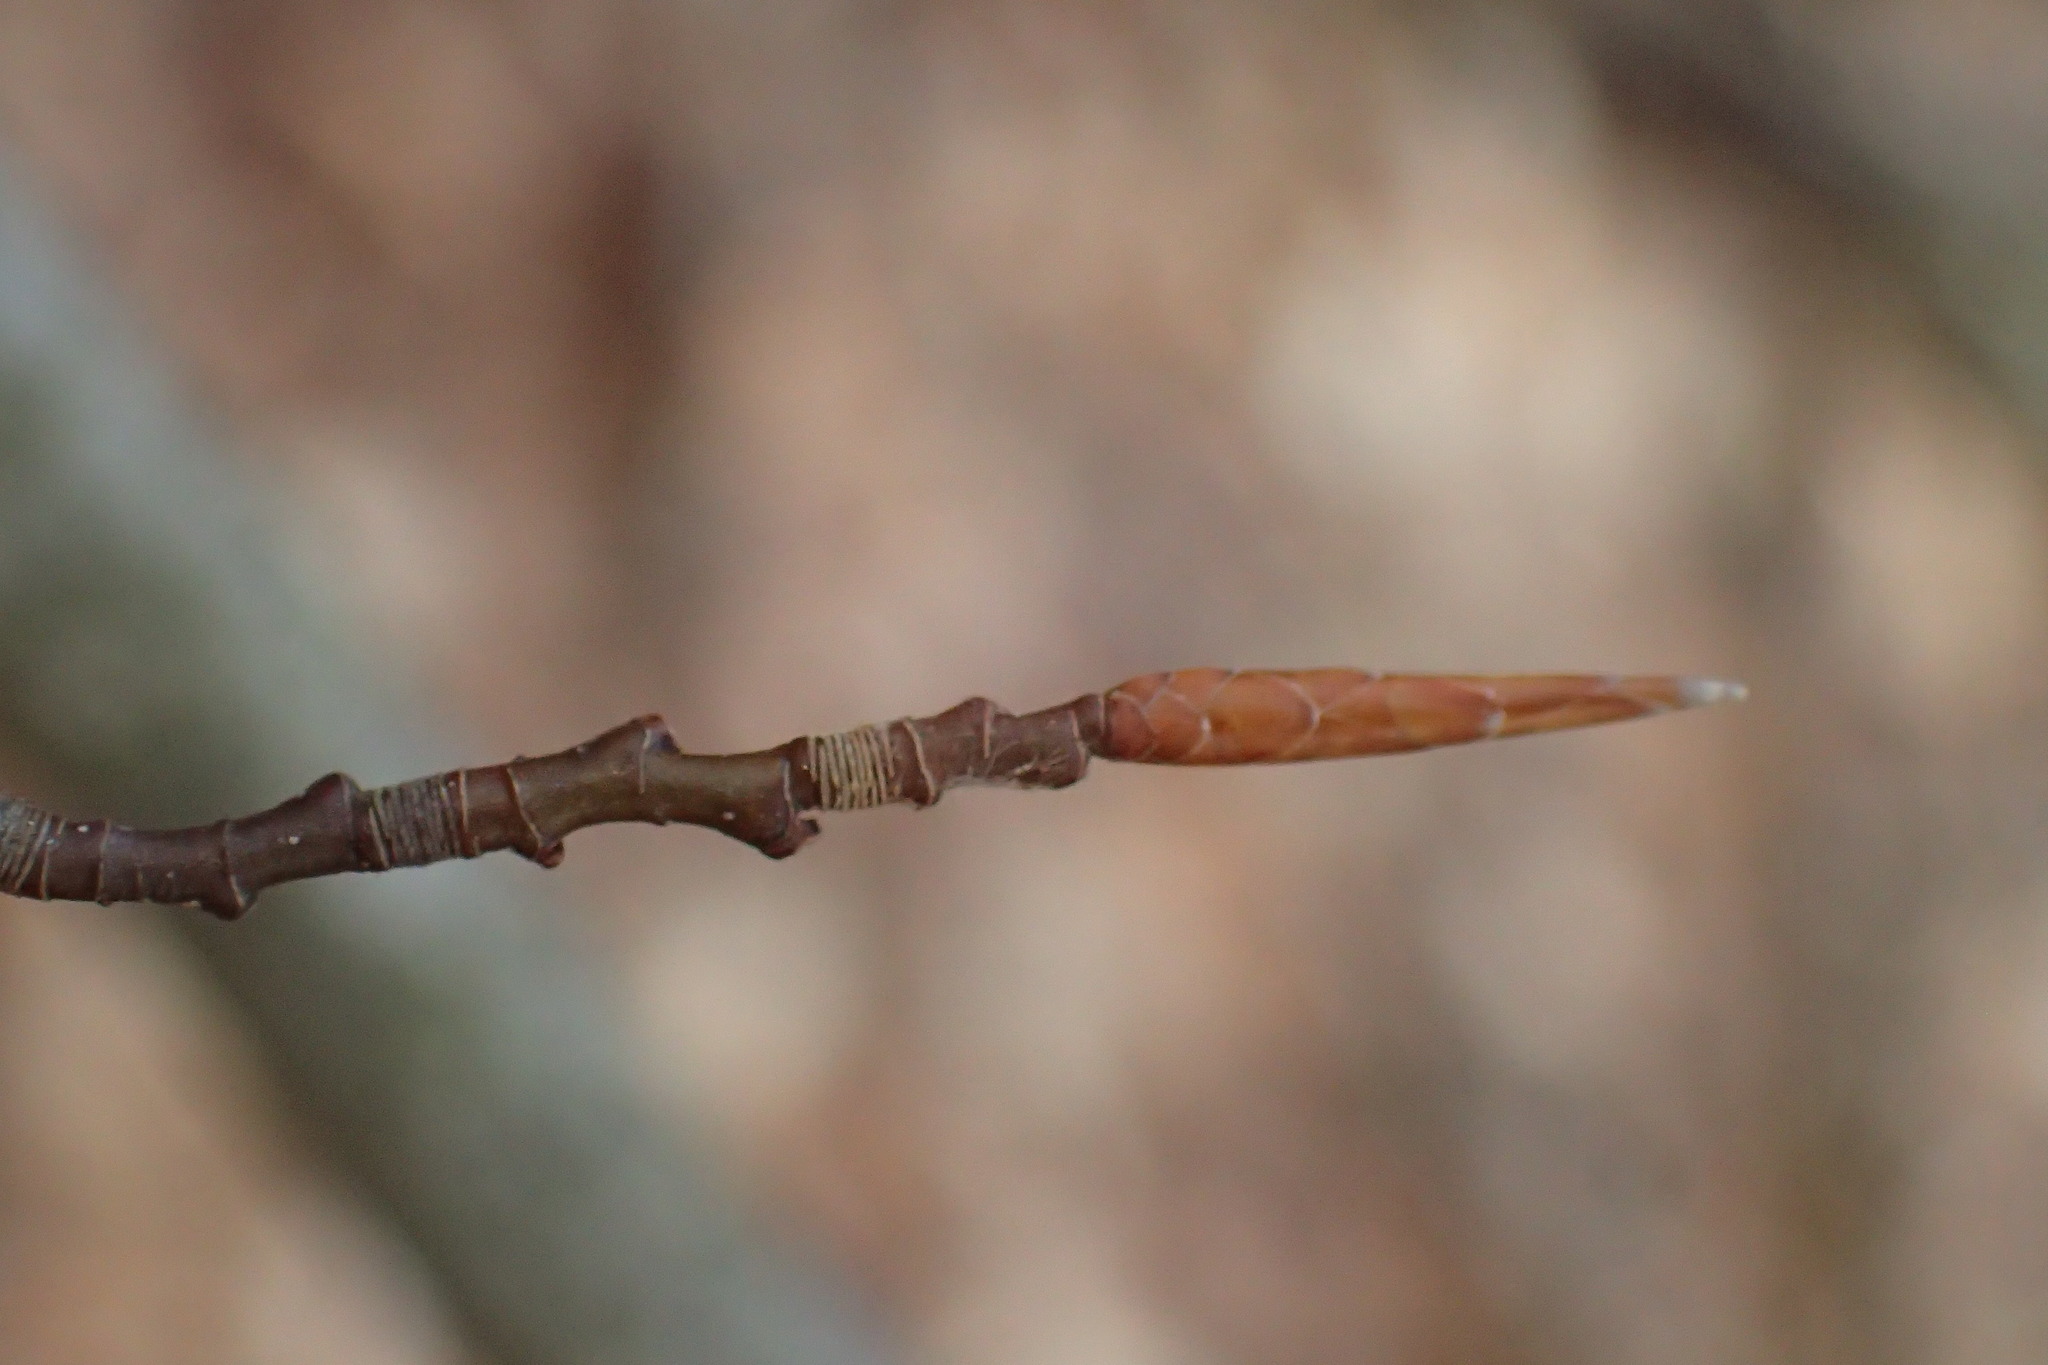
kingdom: Plantae
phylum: Tracheophyta
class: Magnoliopsida
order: Fagales
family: Fagaceae
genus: Fagus
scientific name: Fagus grandifolia
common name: American beech
